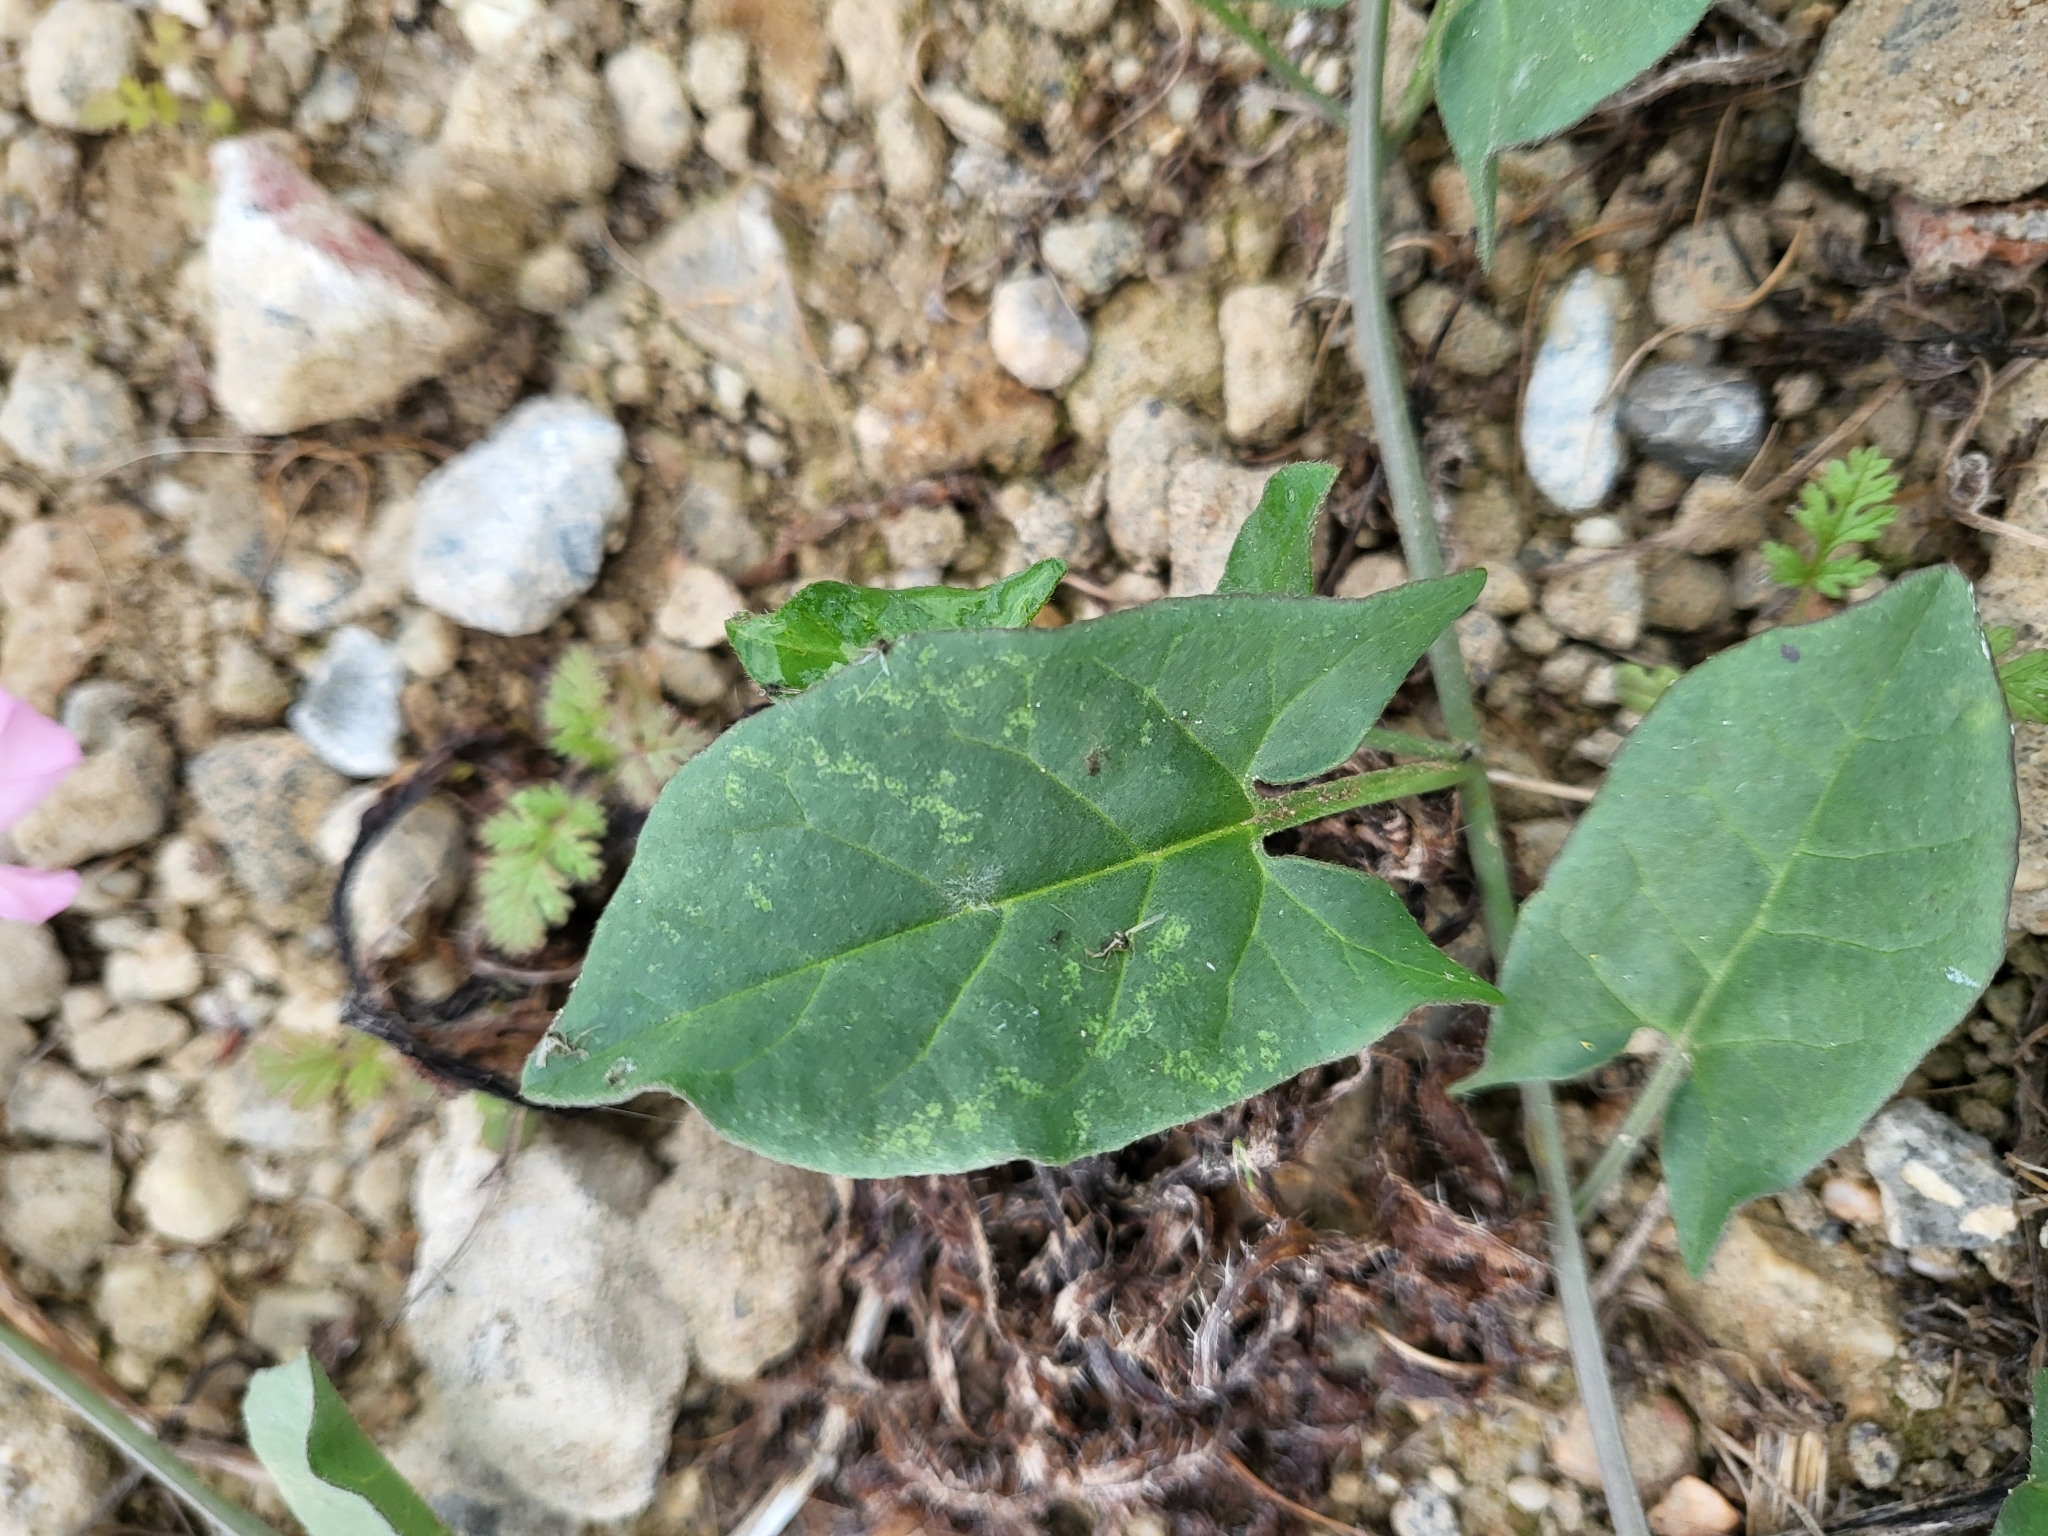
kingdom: Plantae
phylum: Tracheophyta
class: Magnoliopsida
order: Solanales
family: Convolvulaceae
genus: Convolvulus
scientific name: Convolvulus arvensis
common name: Field bindweed
